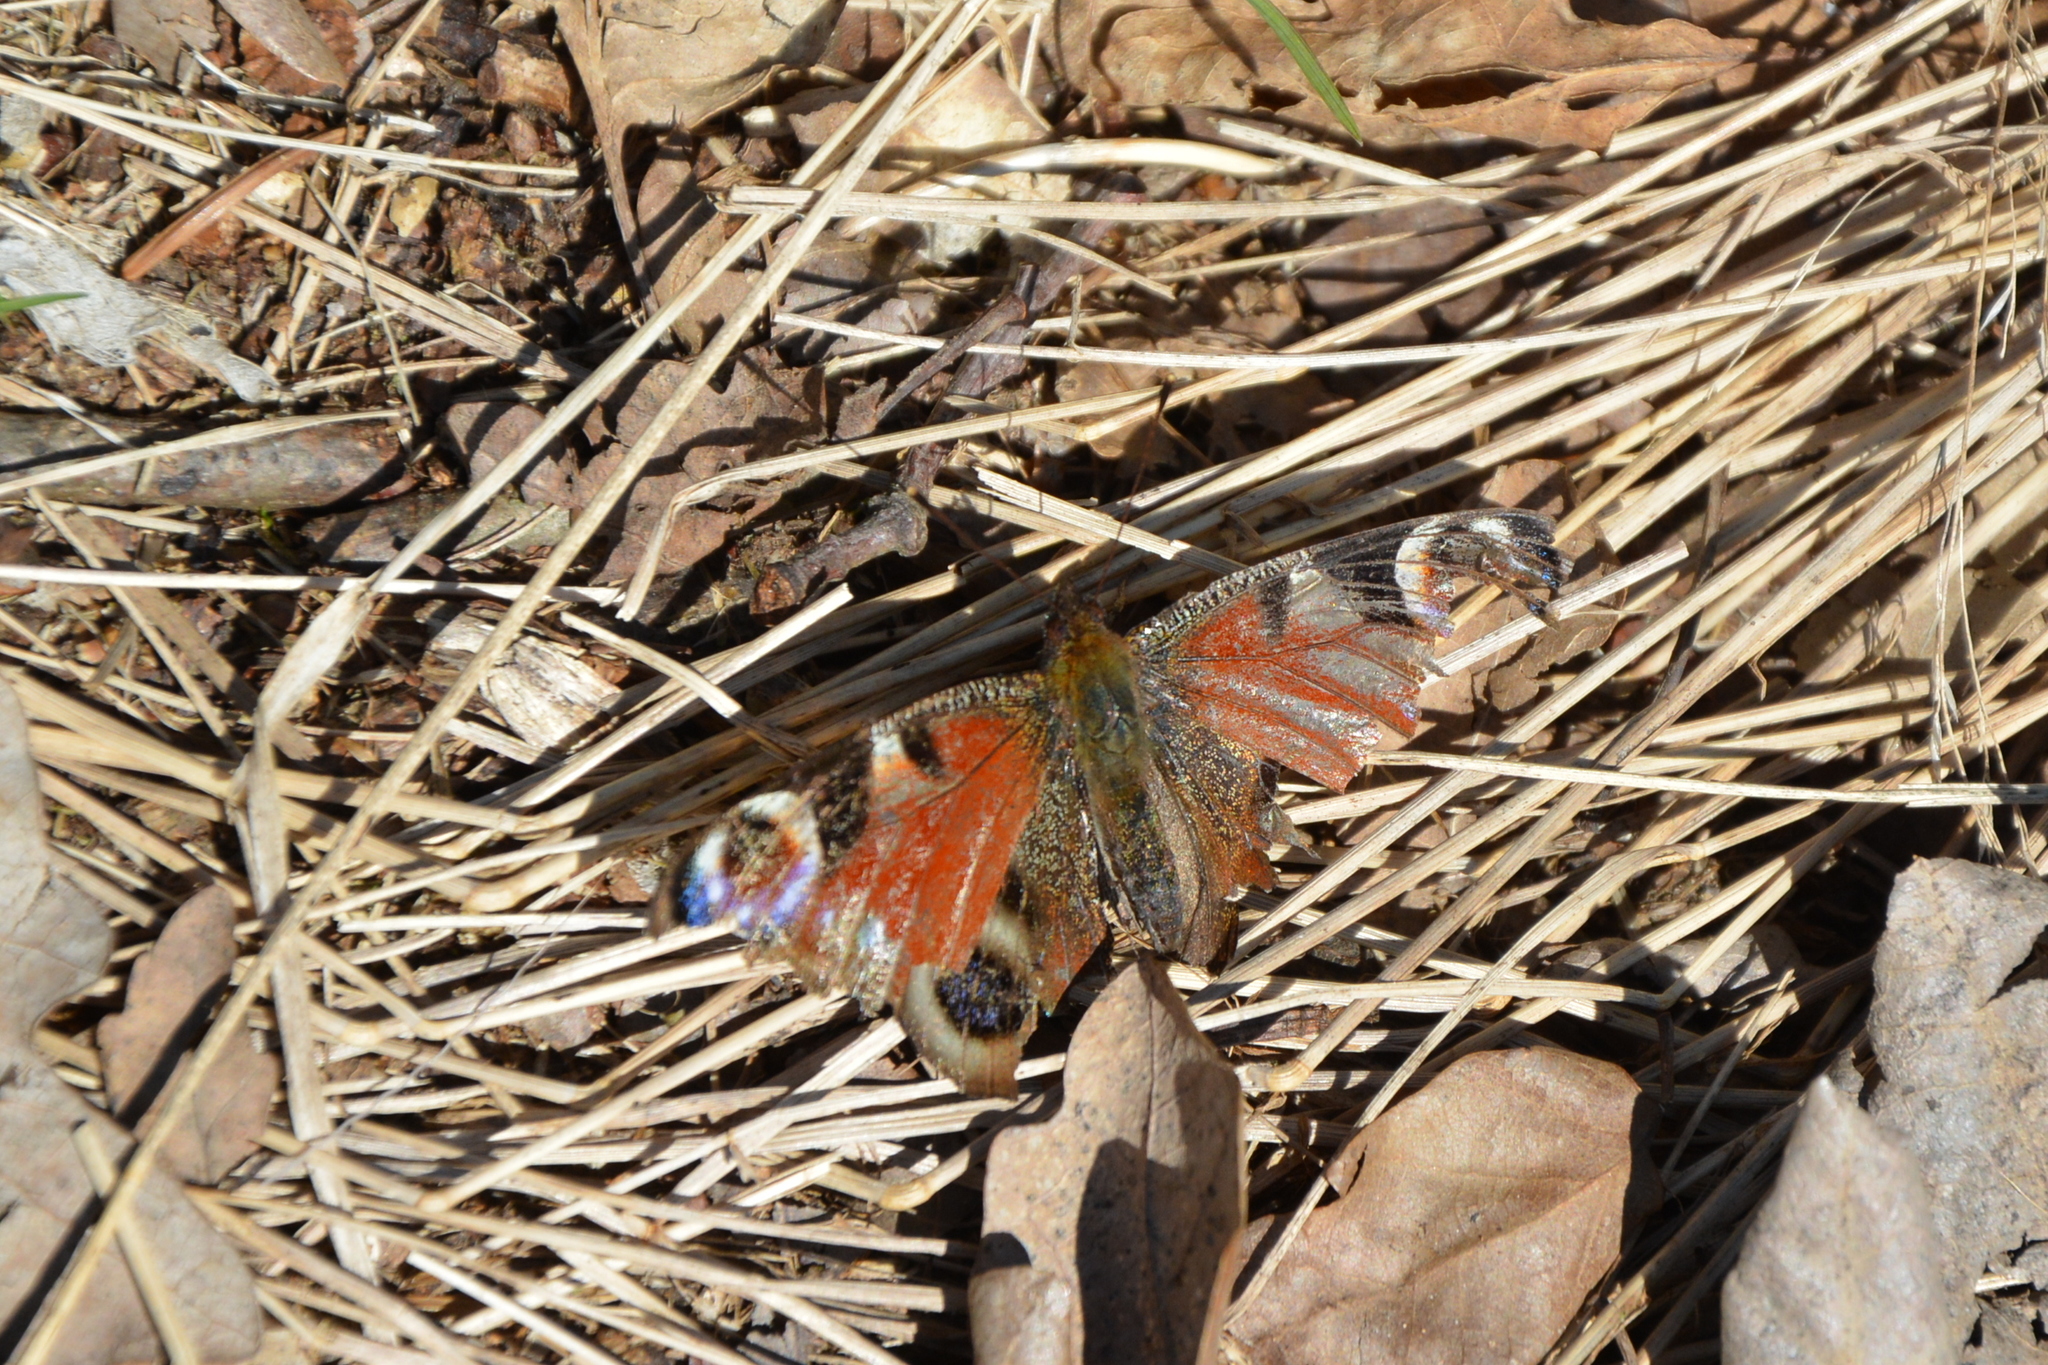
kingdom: Animalia
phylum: Arthropoda
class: Insecta
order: Lepidoptera
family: Nymphalidae
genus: Aglais
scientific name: Aglais io
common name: Peacock
